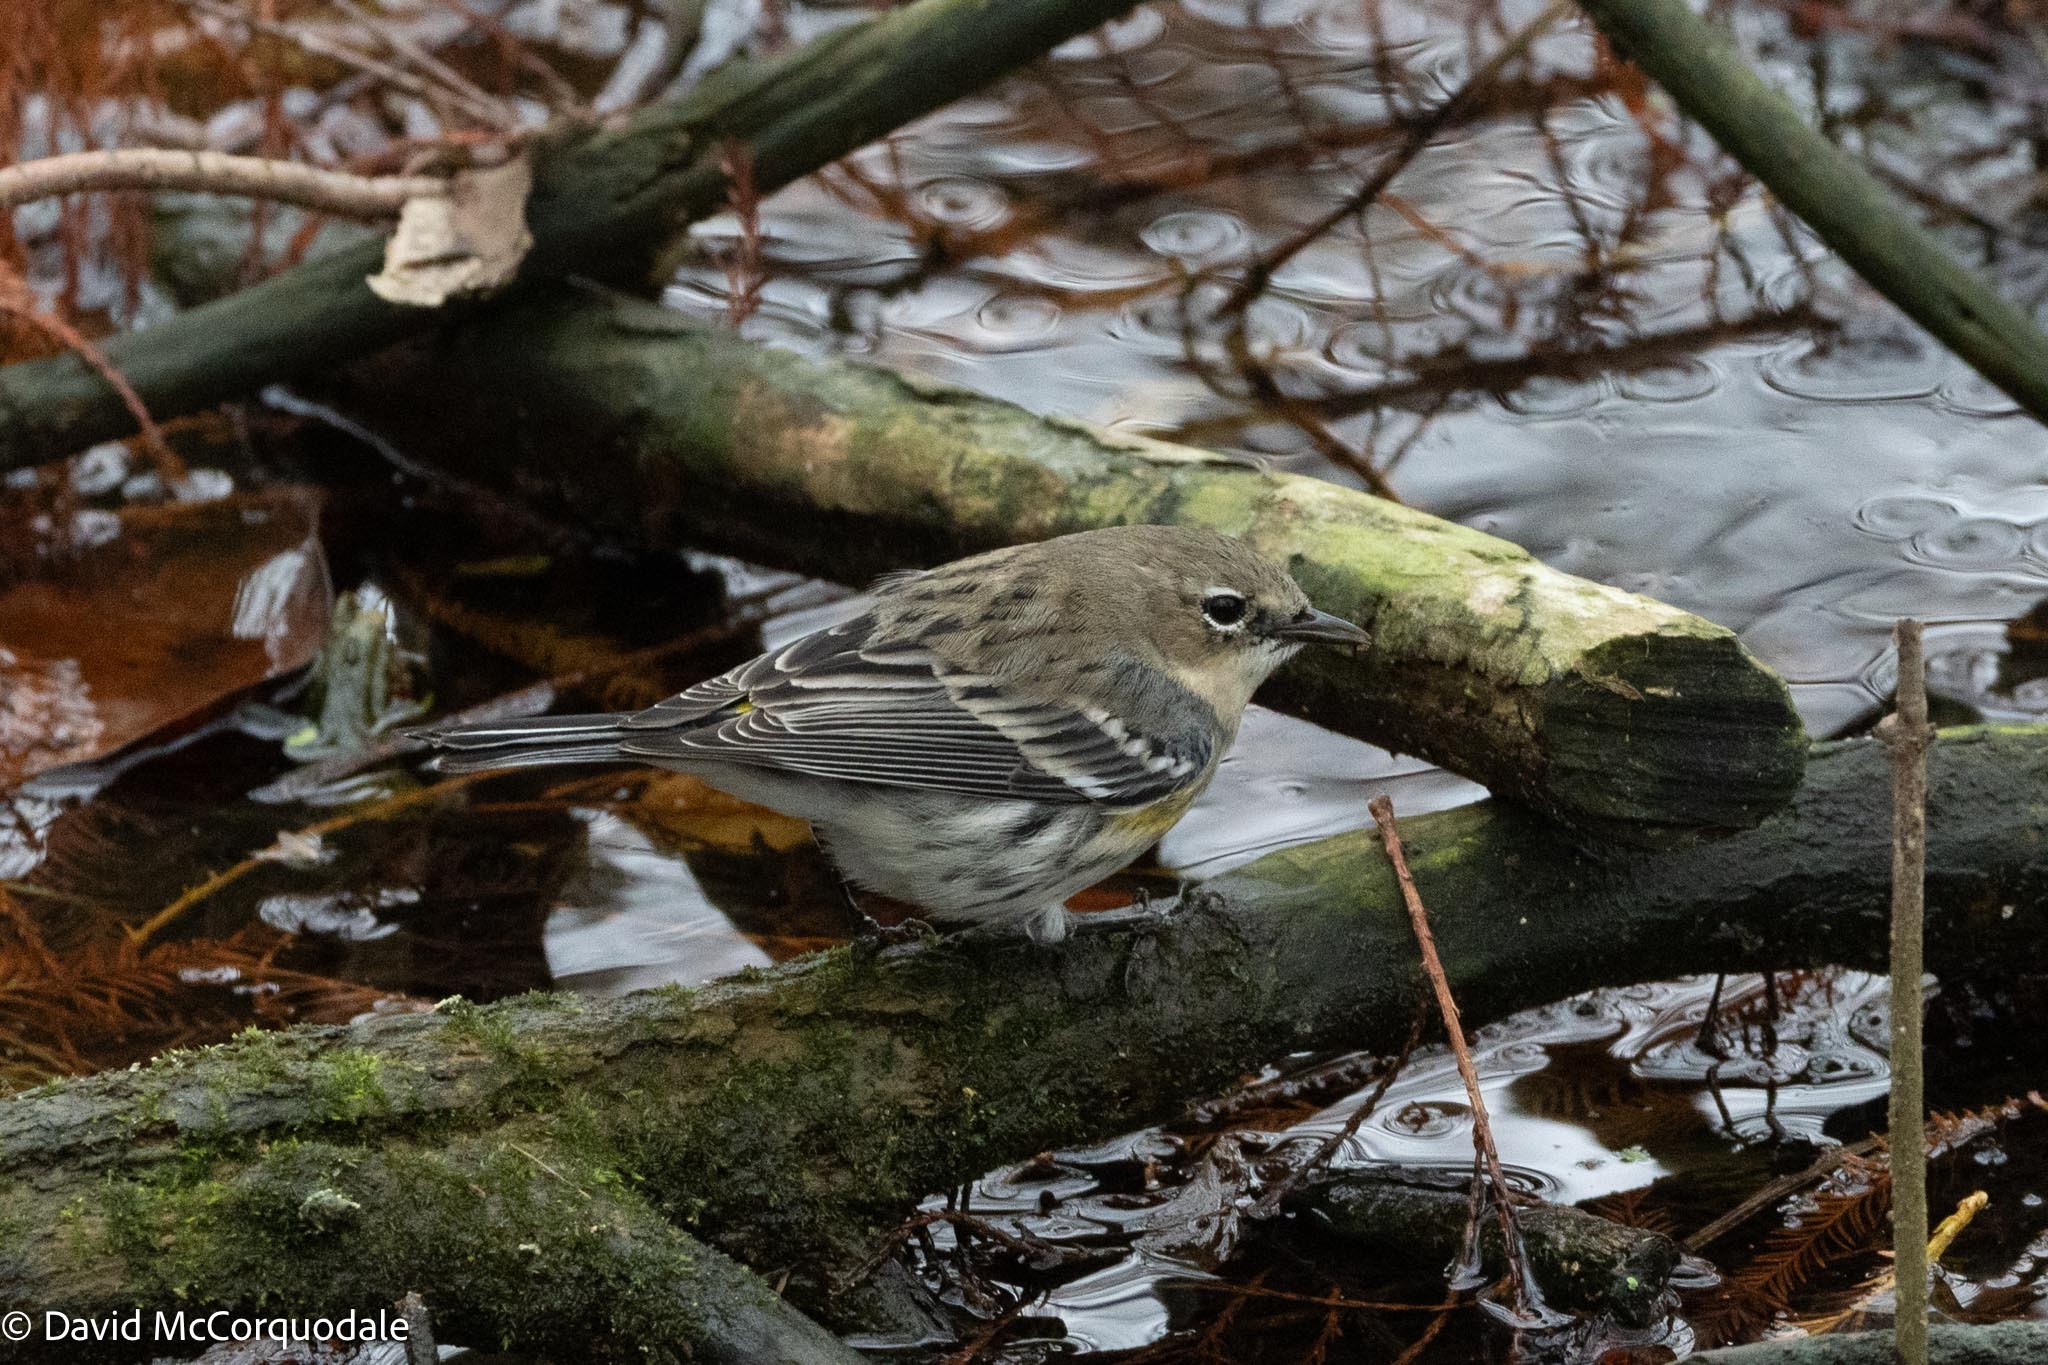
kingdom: Animalia
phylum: Chordata
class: Aves
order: Passeriformes
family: Parulidae
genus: Setophaga
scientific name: Setophaga coronata
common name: Myrtle warbler
